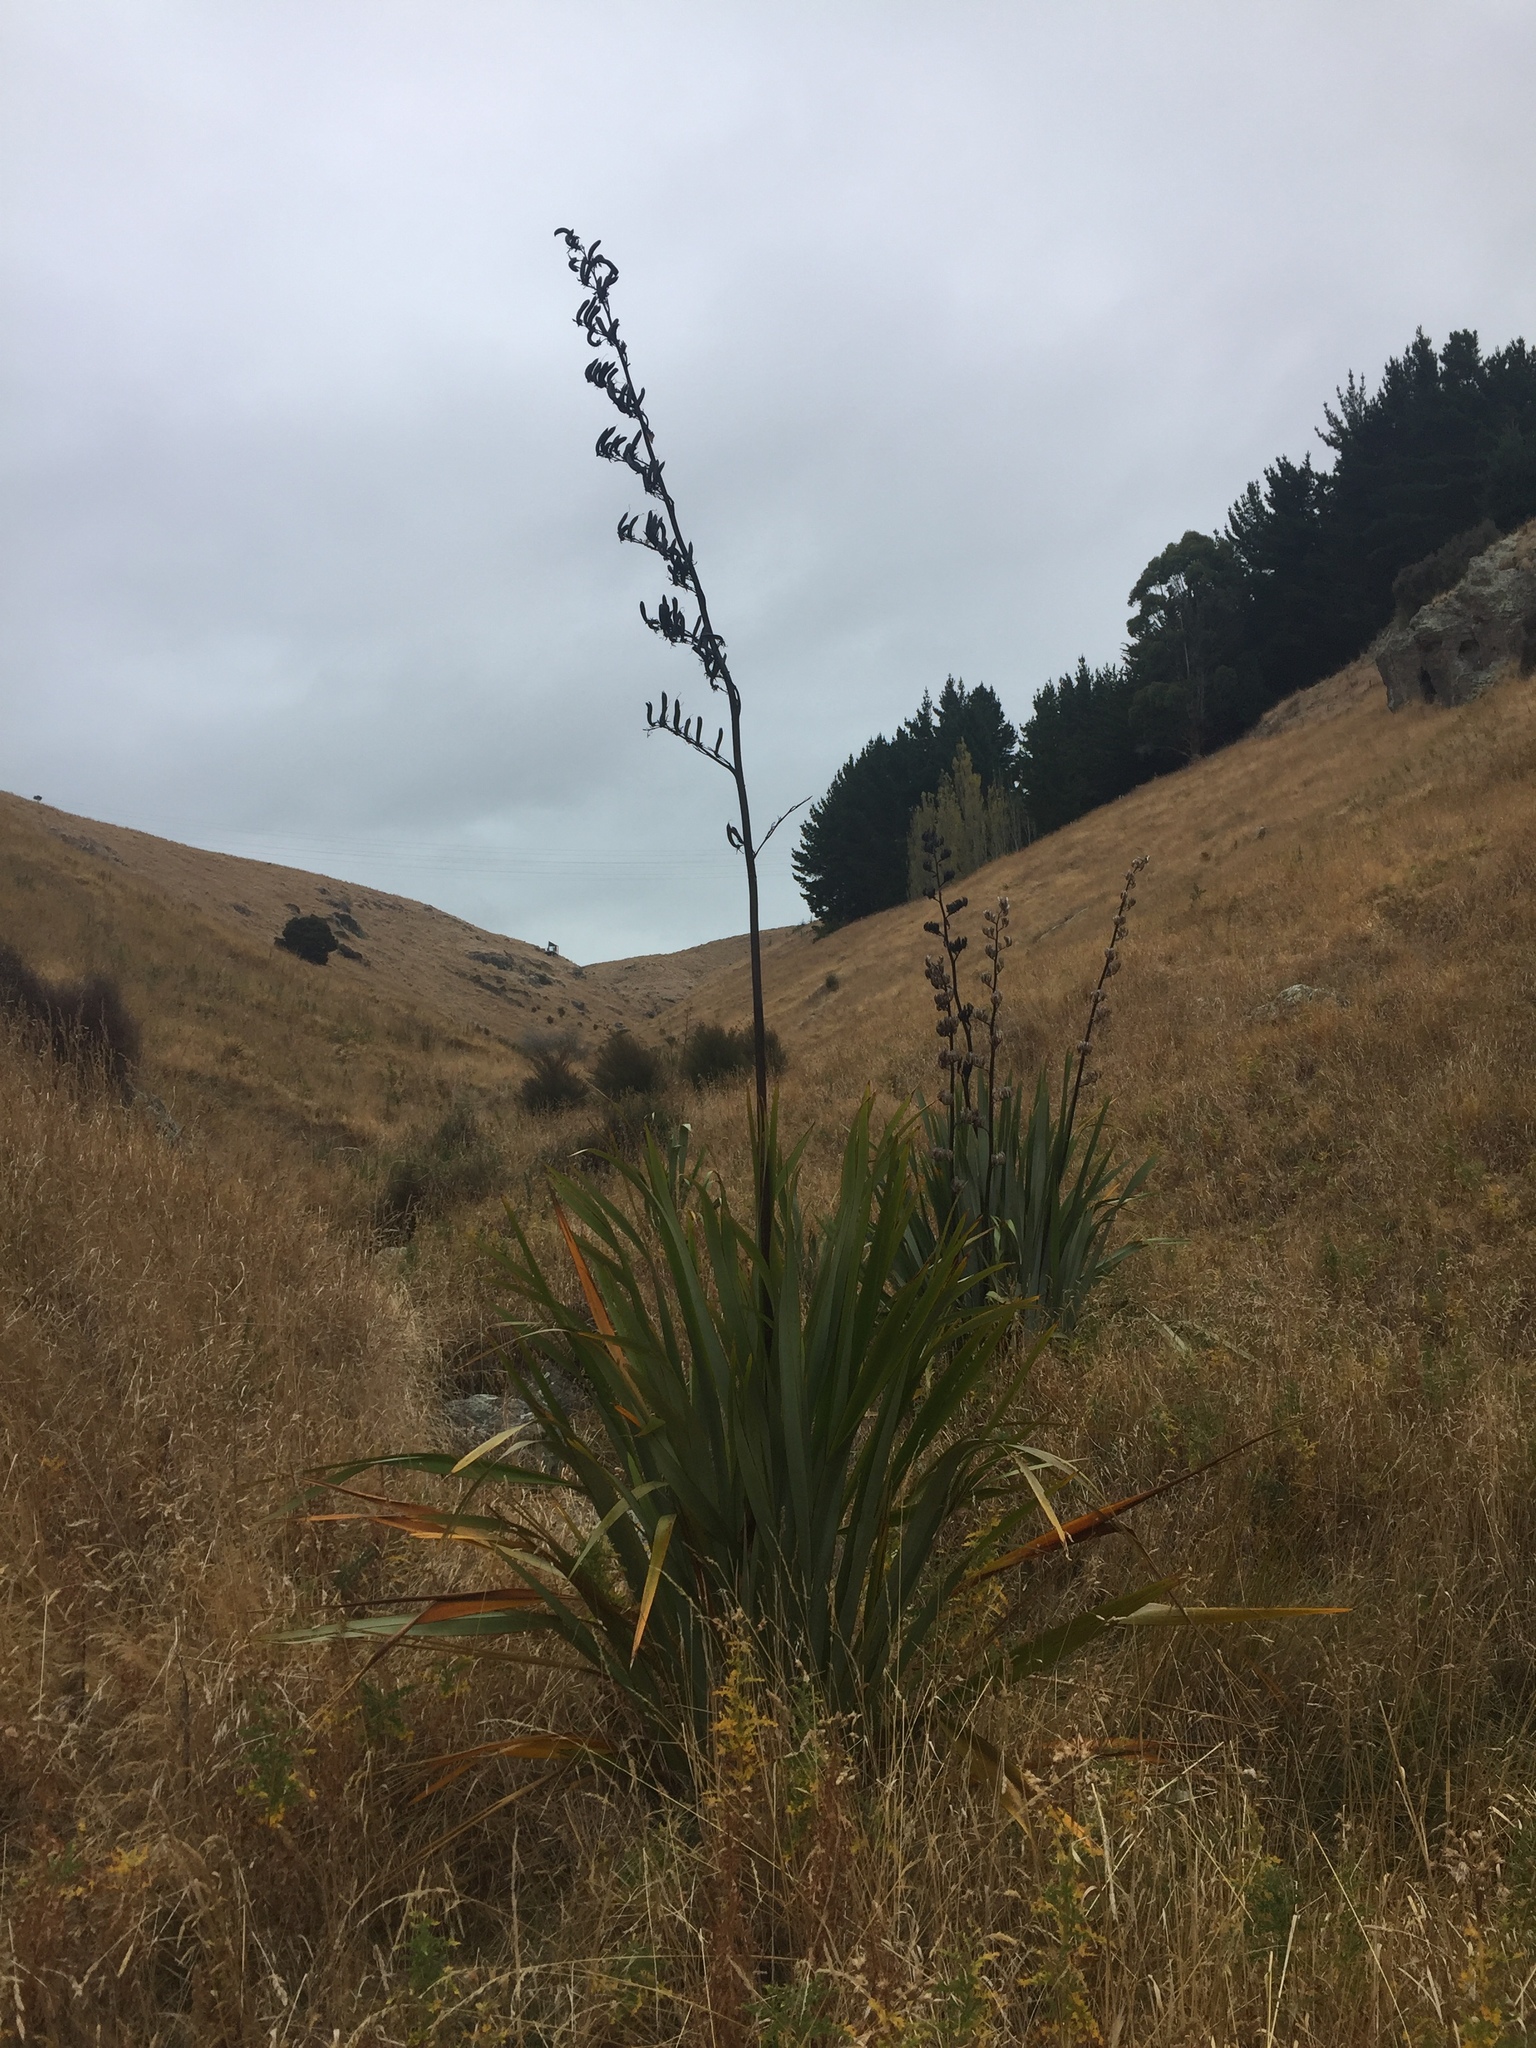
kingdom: Plantae
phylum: Tracheophyta
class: Liliopsida
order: Asparagales
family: Asphodelaceae
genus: Phormium
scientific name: Phormium tenax
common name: New zealand flax
